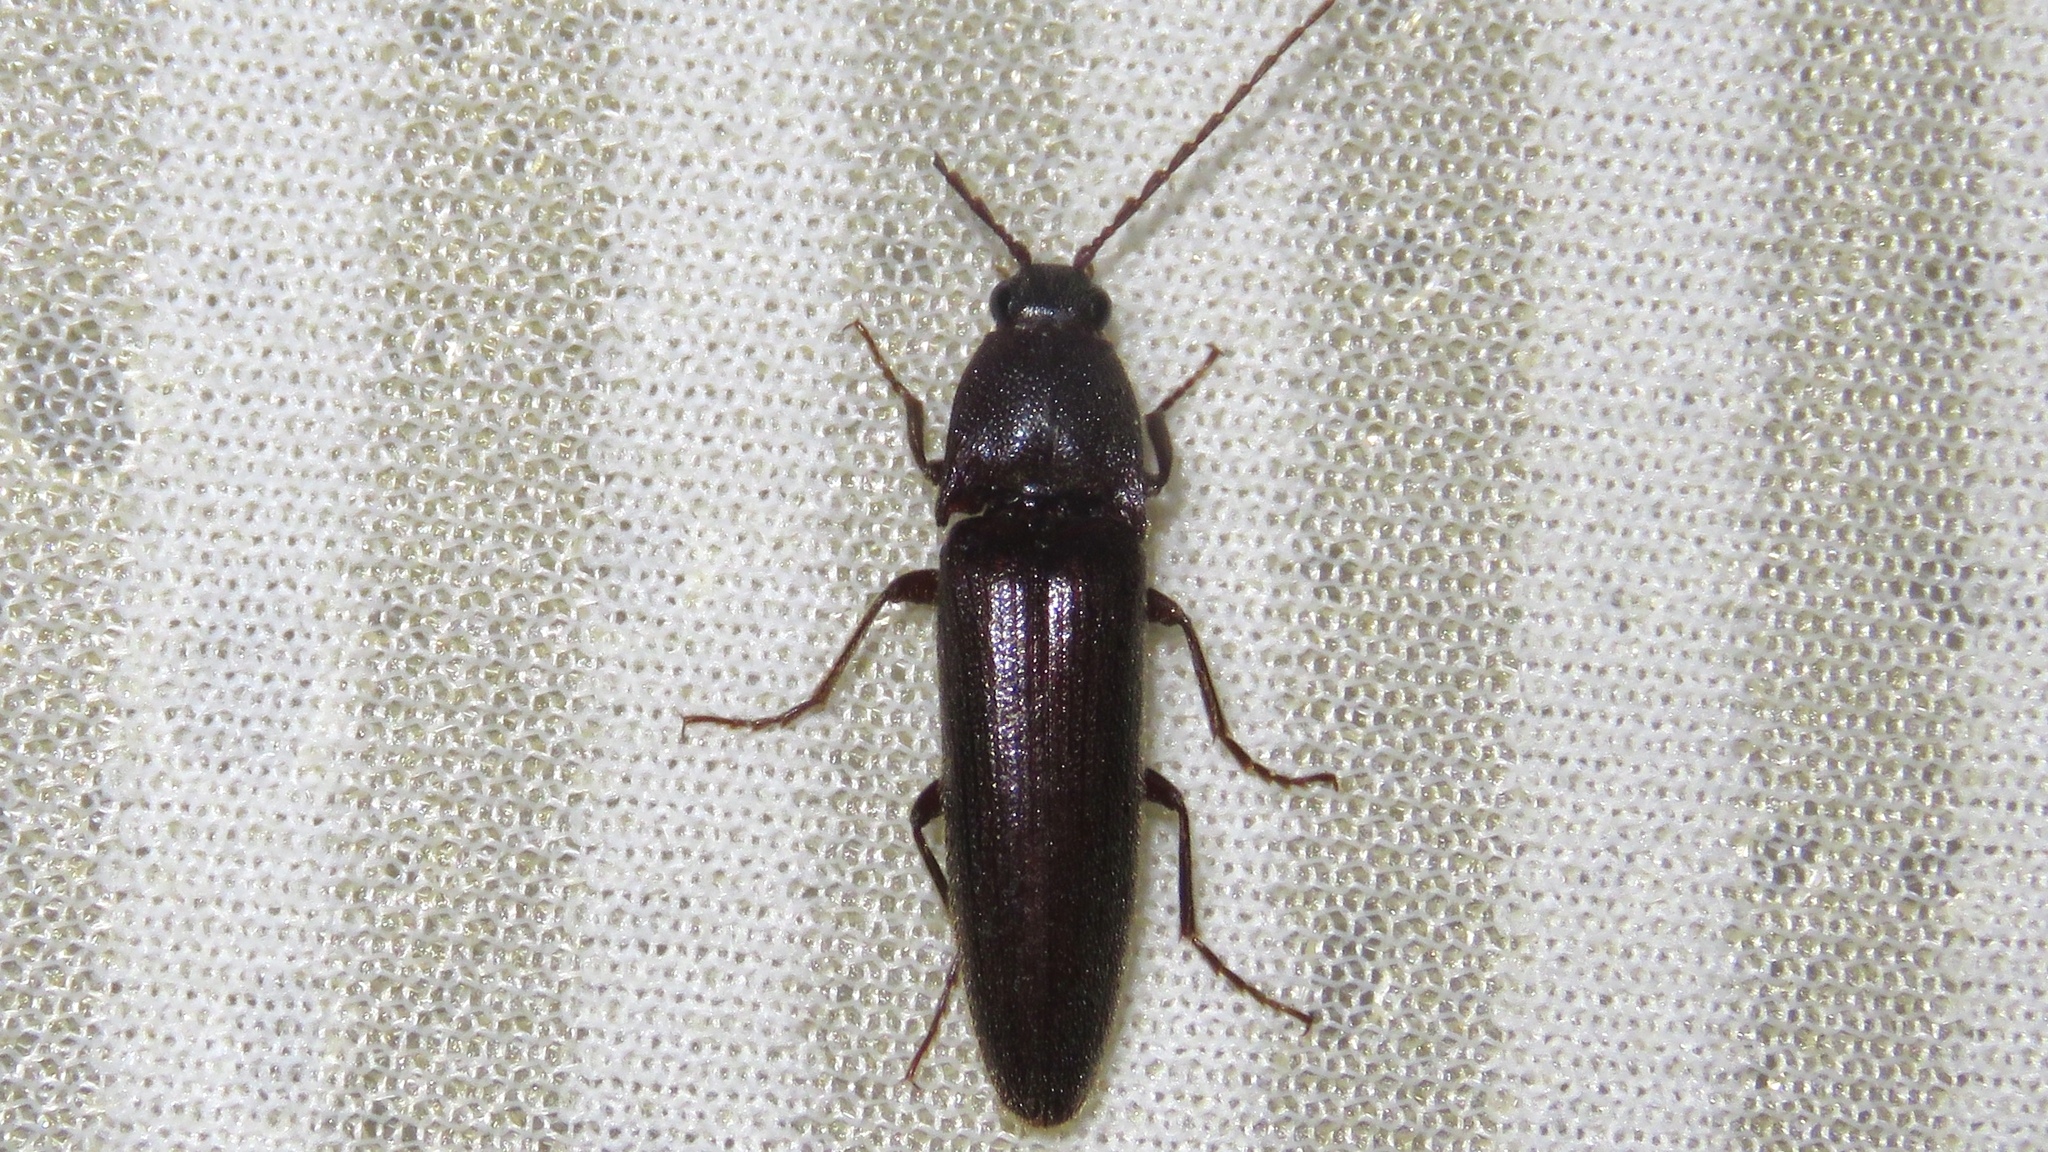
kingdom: Animalia
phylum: Arthropoda
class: Insecta
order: Coleoptera
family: Elateridae
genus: Melanotus
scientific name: Melanotus castanipes
